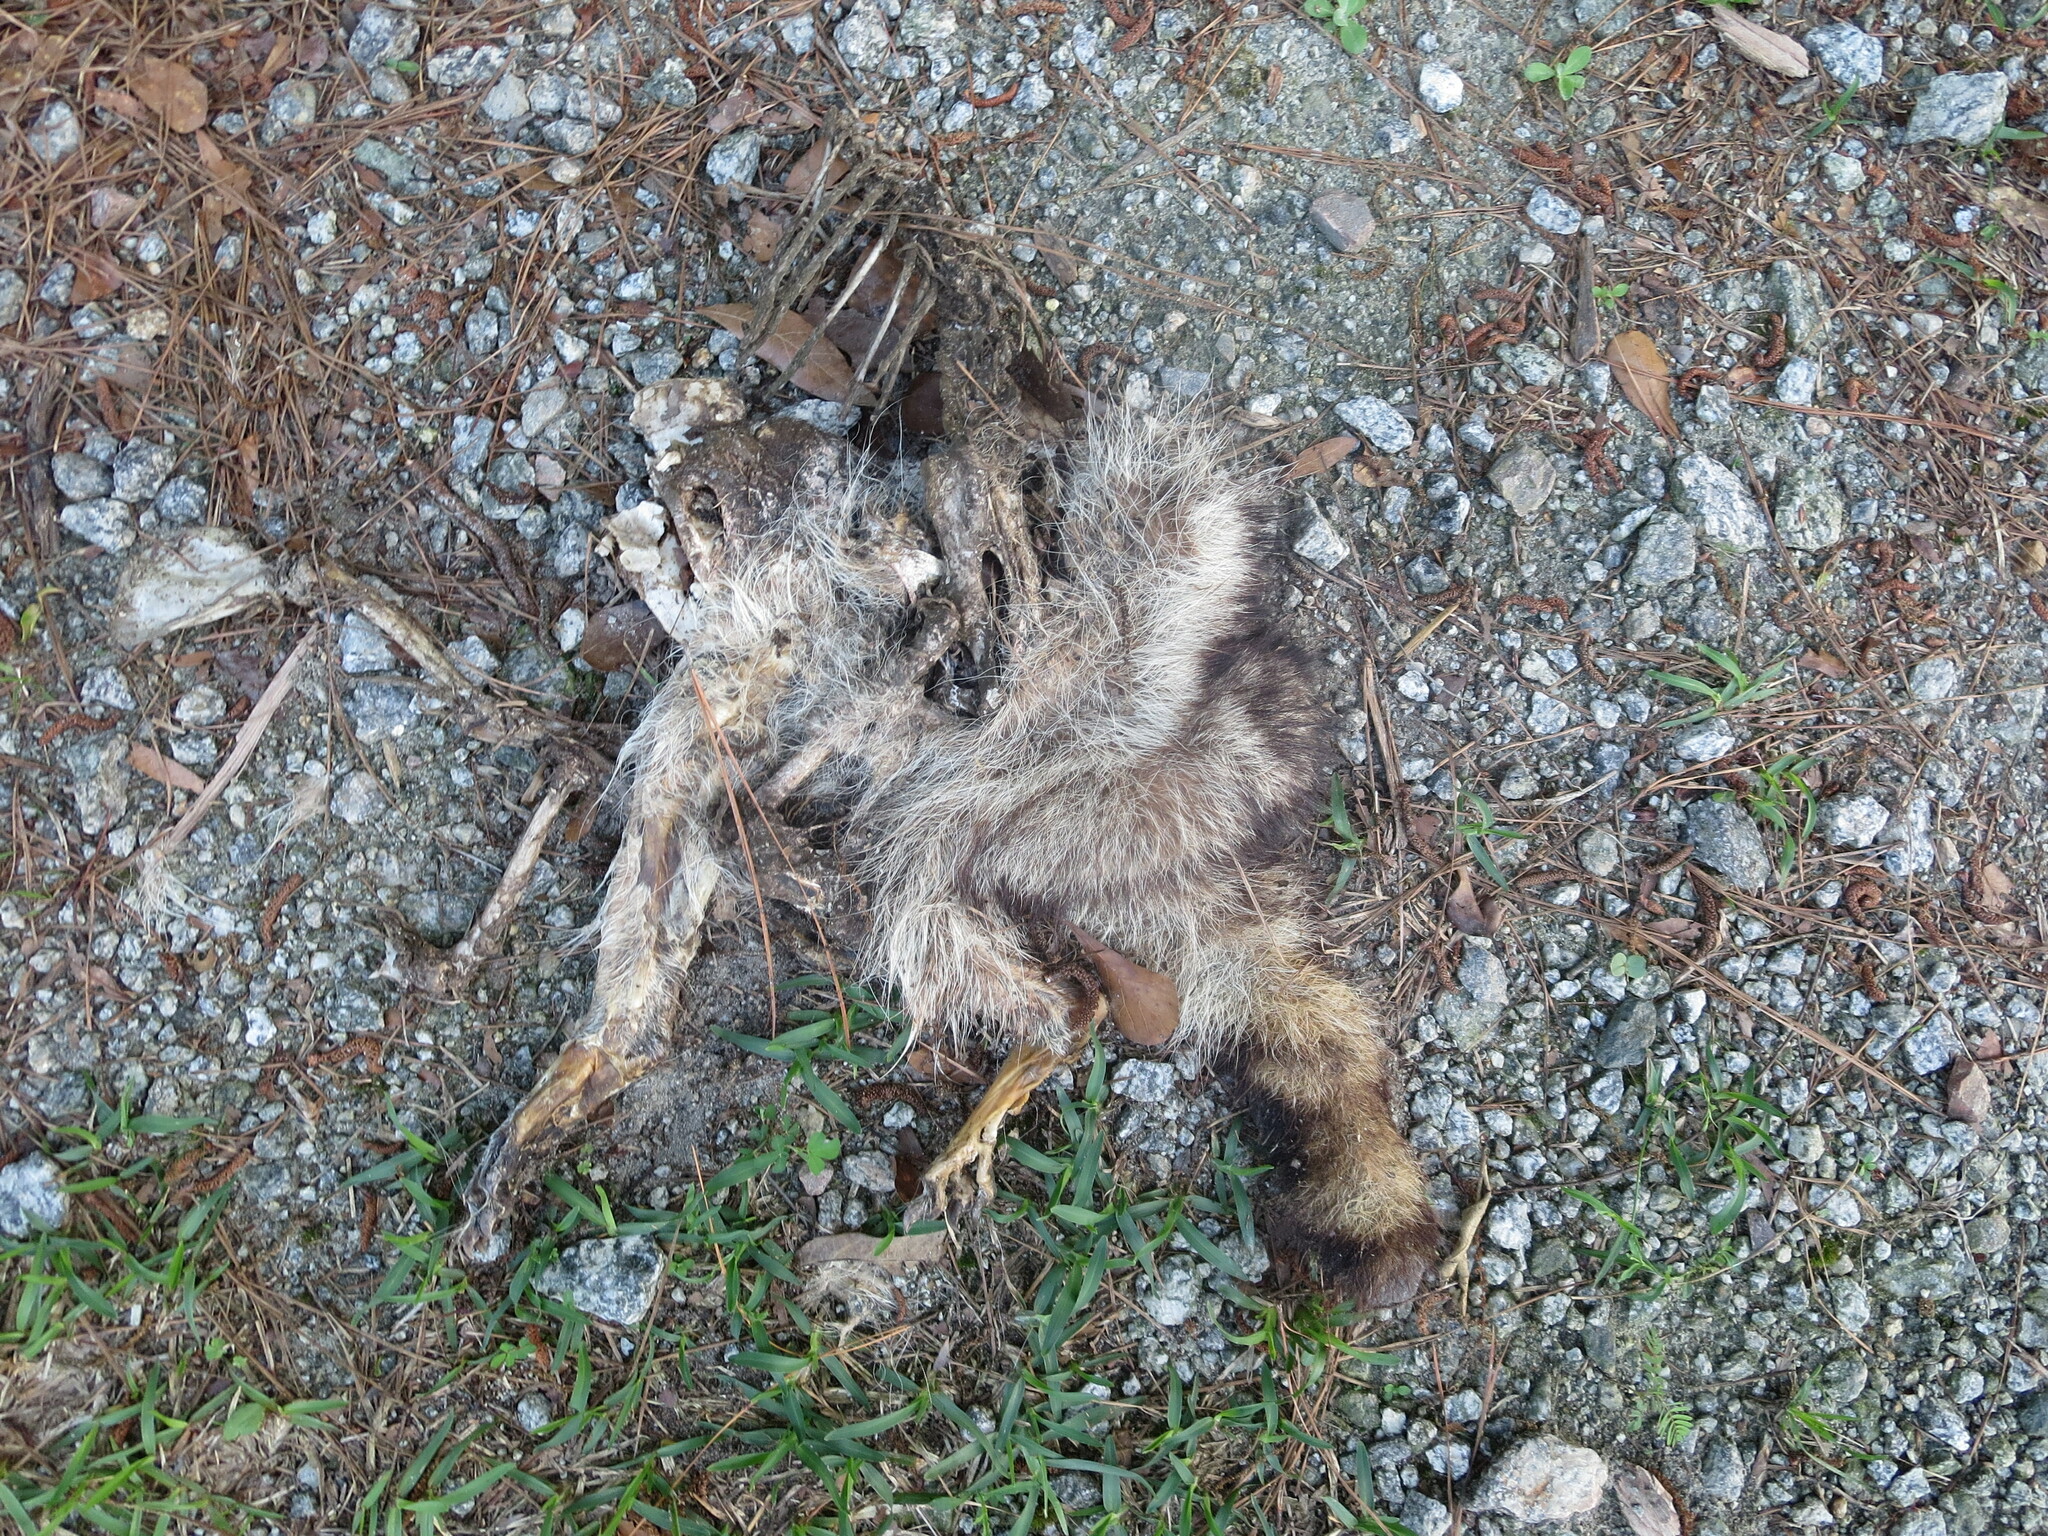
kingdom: Animalia
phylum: Chordata
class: Mammalia
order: Carnivora
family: Procyonidae
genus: Procyon
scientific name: Procyon lotor
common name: Raccoon
